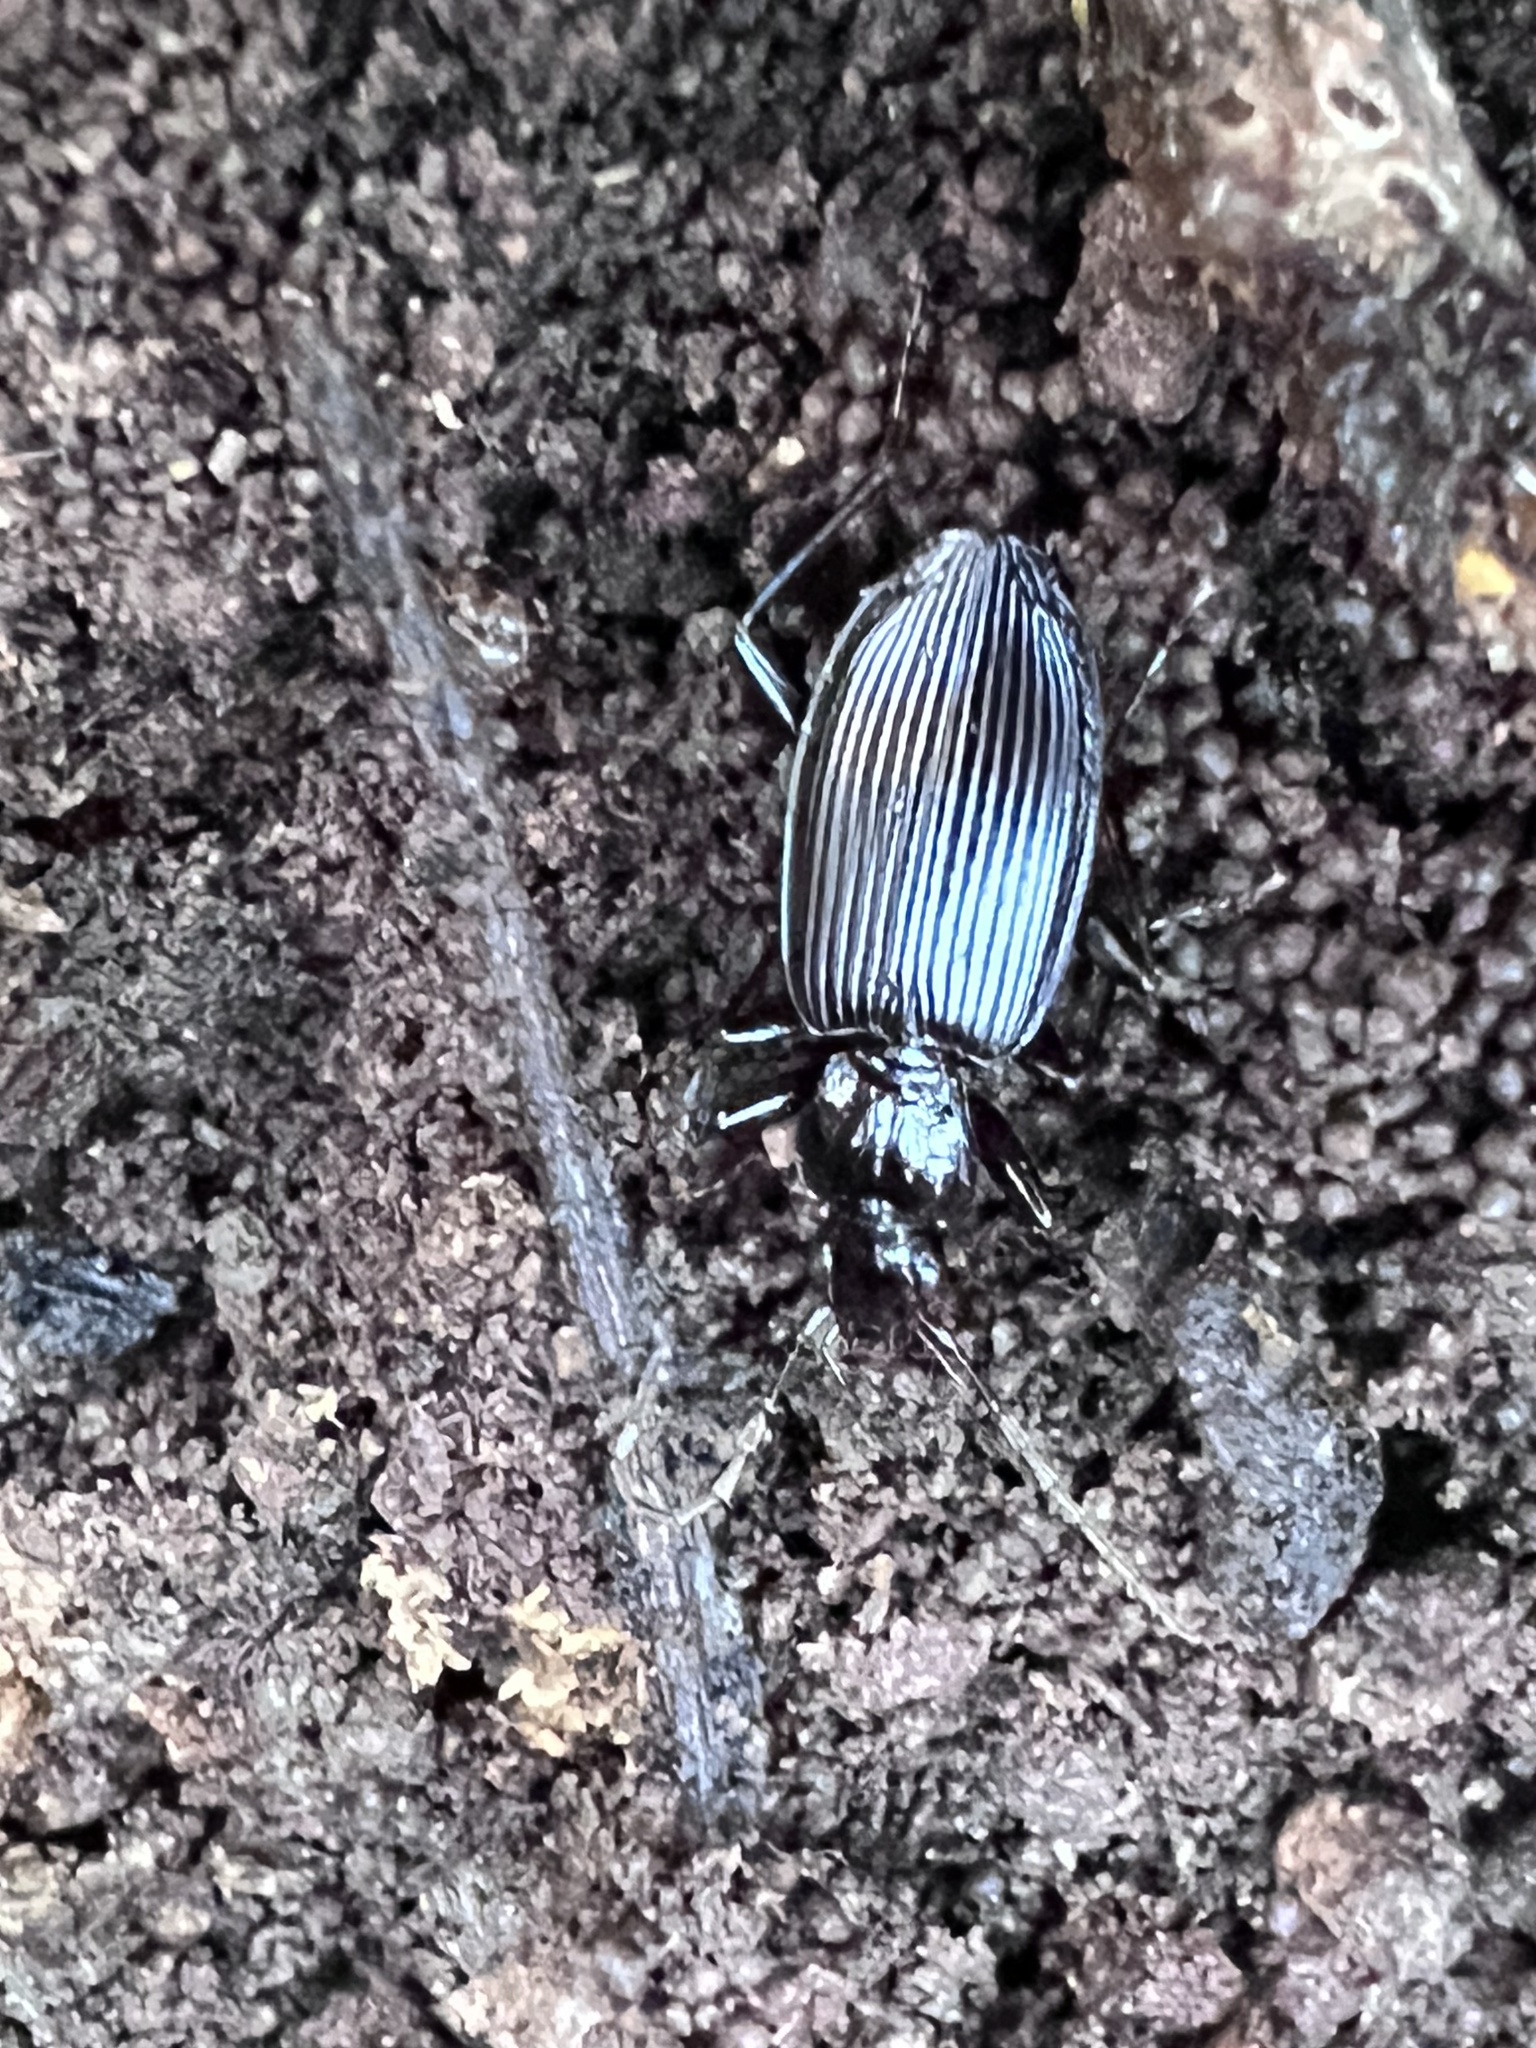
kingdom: Animalia
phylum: Arthropoda
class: Insecta
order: Coleoptera
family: Carabidae
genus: Platynus
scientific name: Platynus decentis
